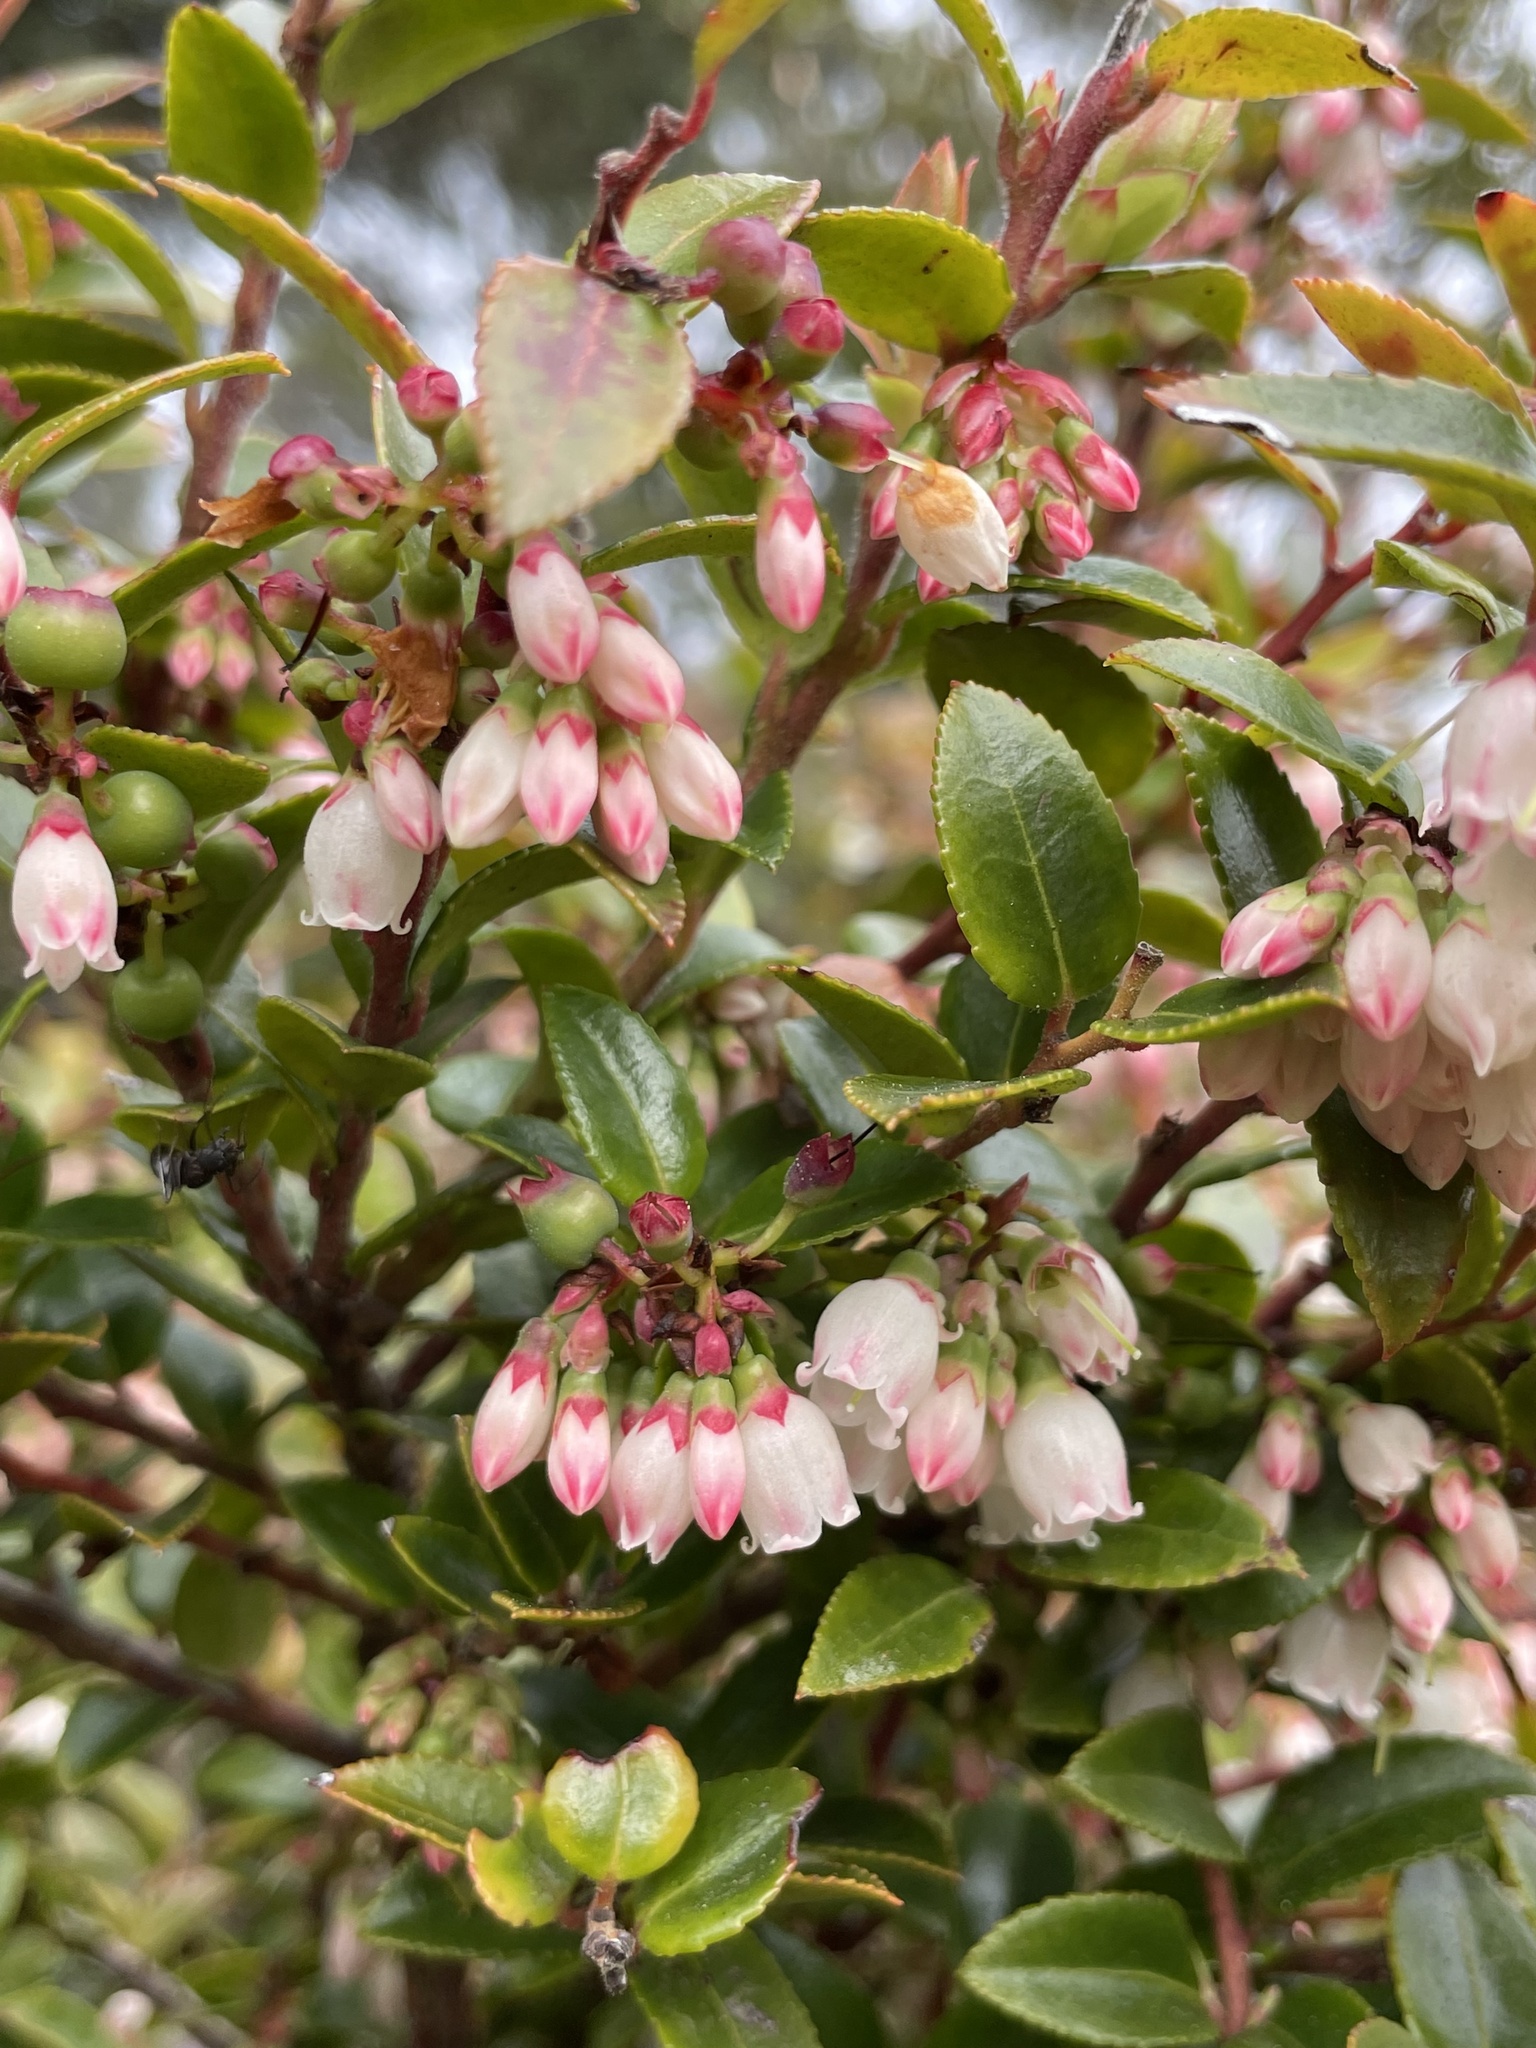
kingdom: Plantae
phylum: Tracheophyta
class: Magnoliopsida
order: Ericales
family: Ericaceae
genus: Vaccinium
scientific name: Vaccinium ovatum
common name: California-huckleberry
